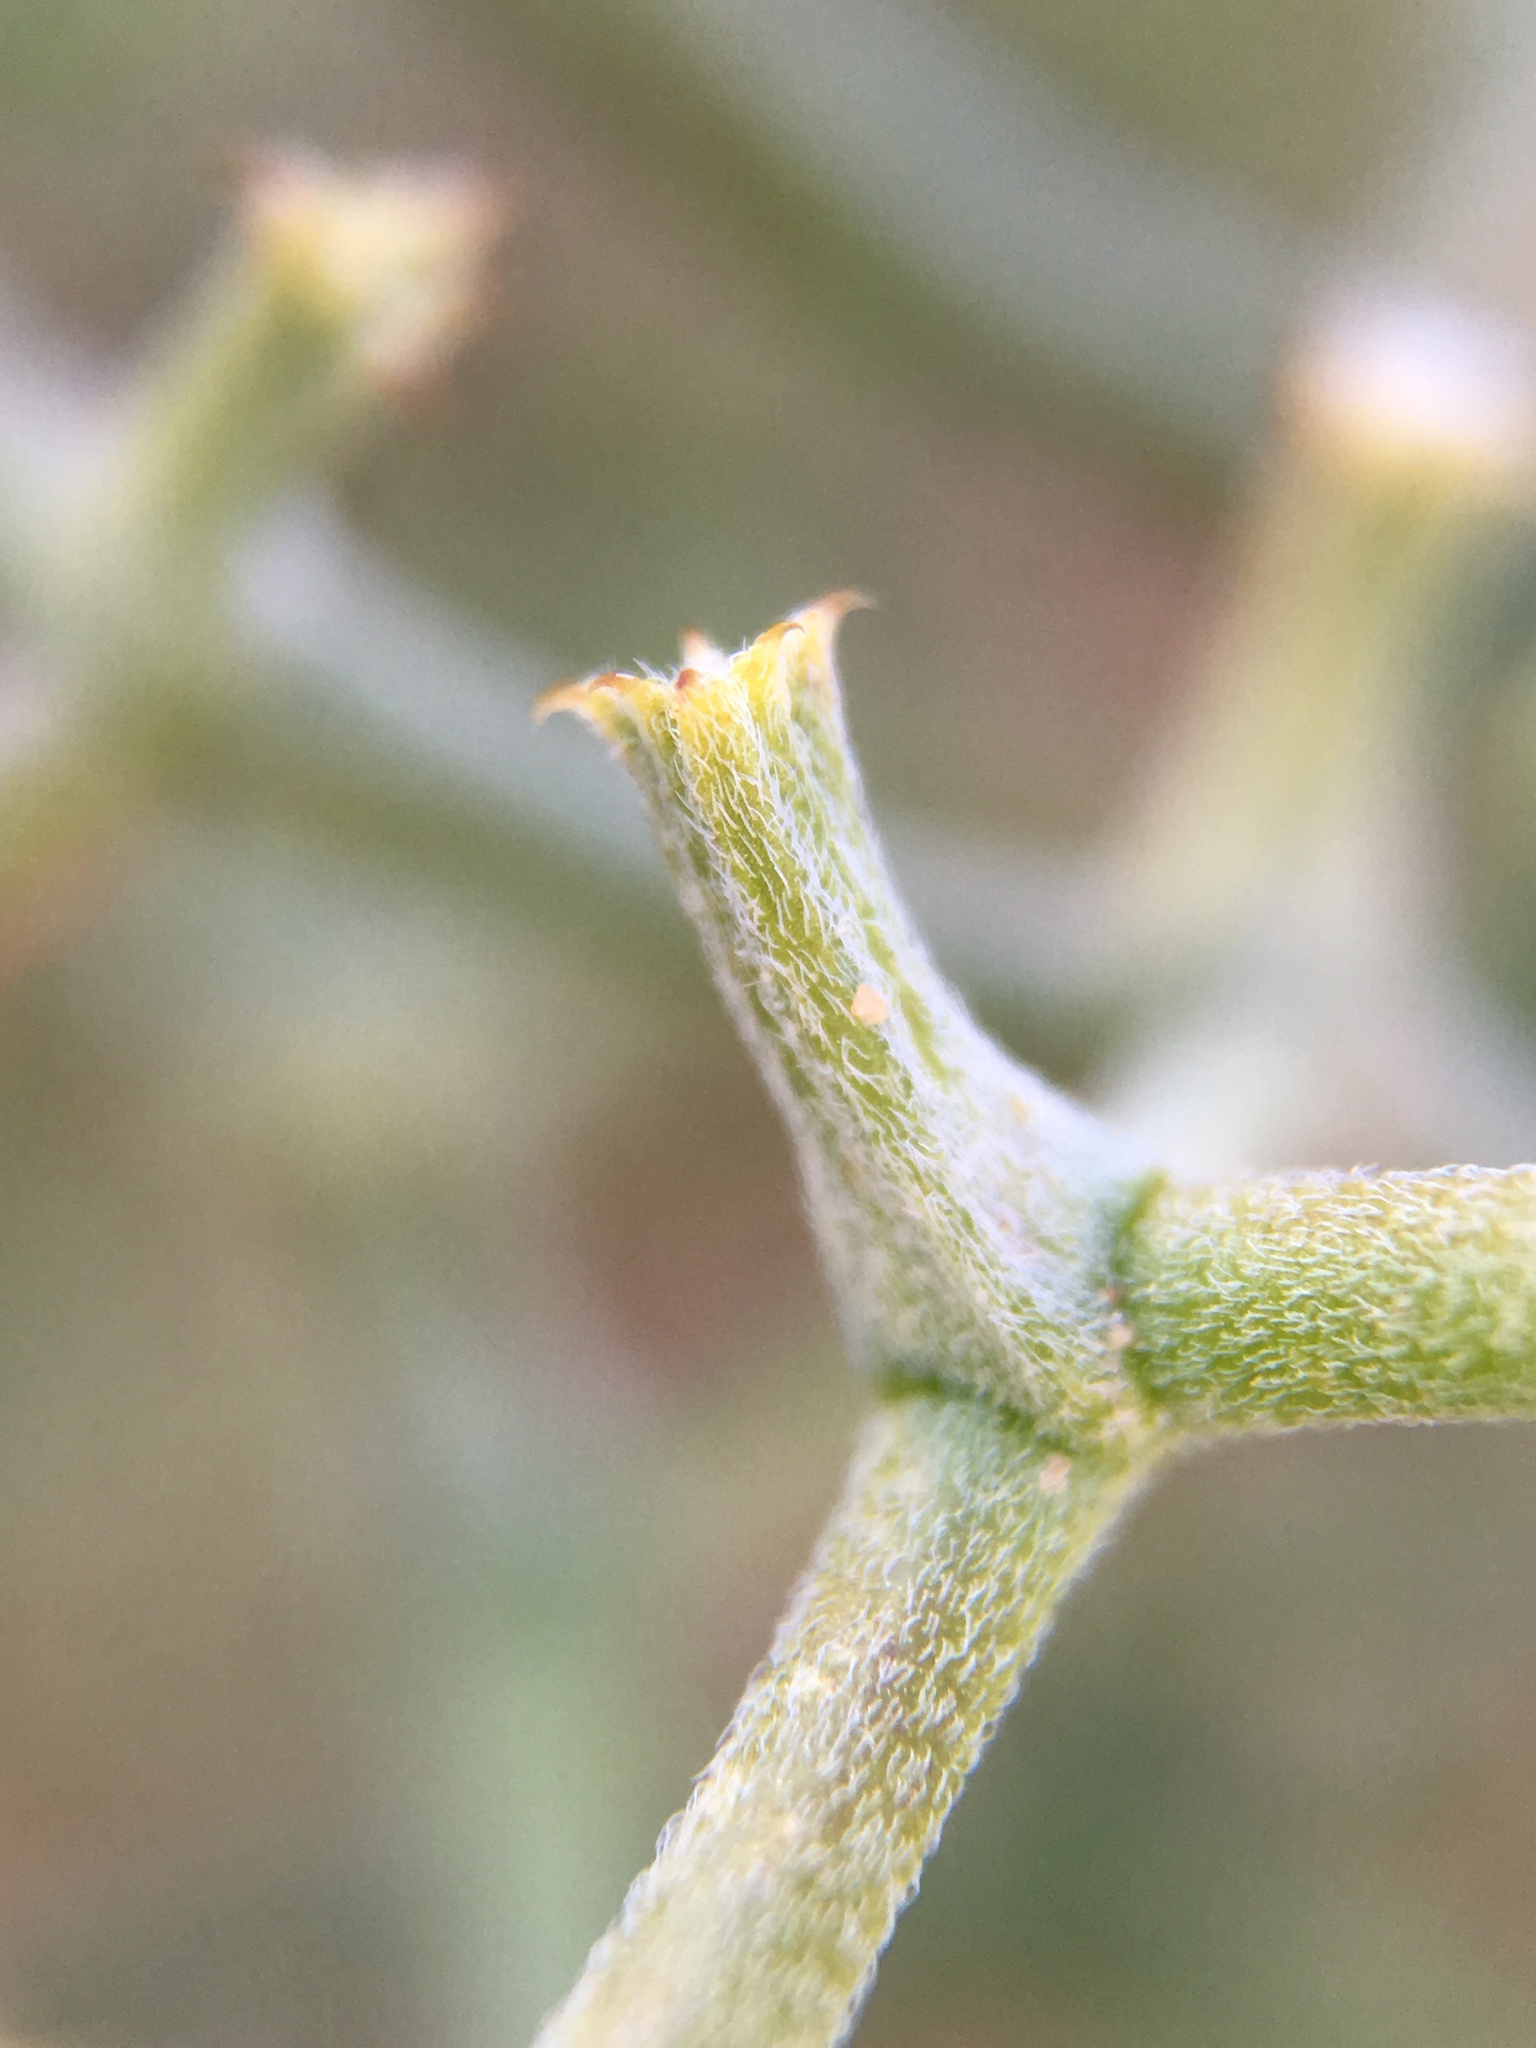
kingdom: Plantae
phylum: Tracheophyta
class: Magnoliopsida
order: Caryophyllales
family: Polygonaceae
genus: Chorizanthe
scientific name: Chorizanthe brevicornu
